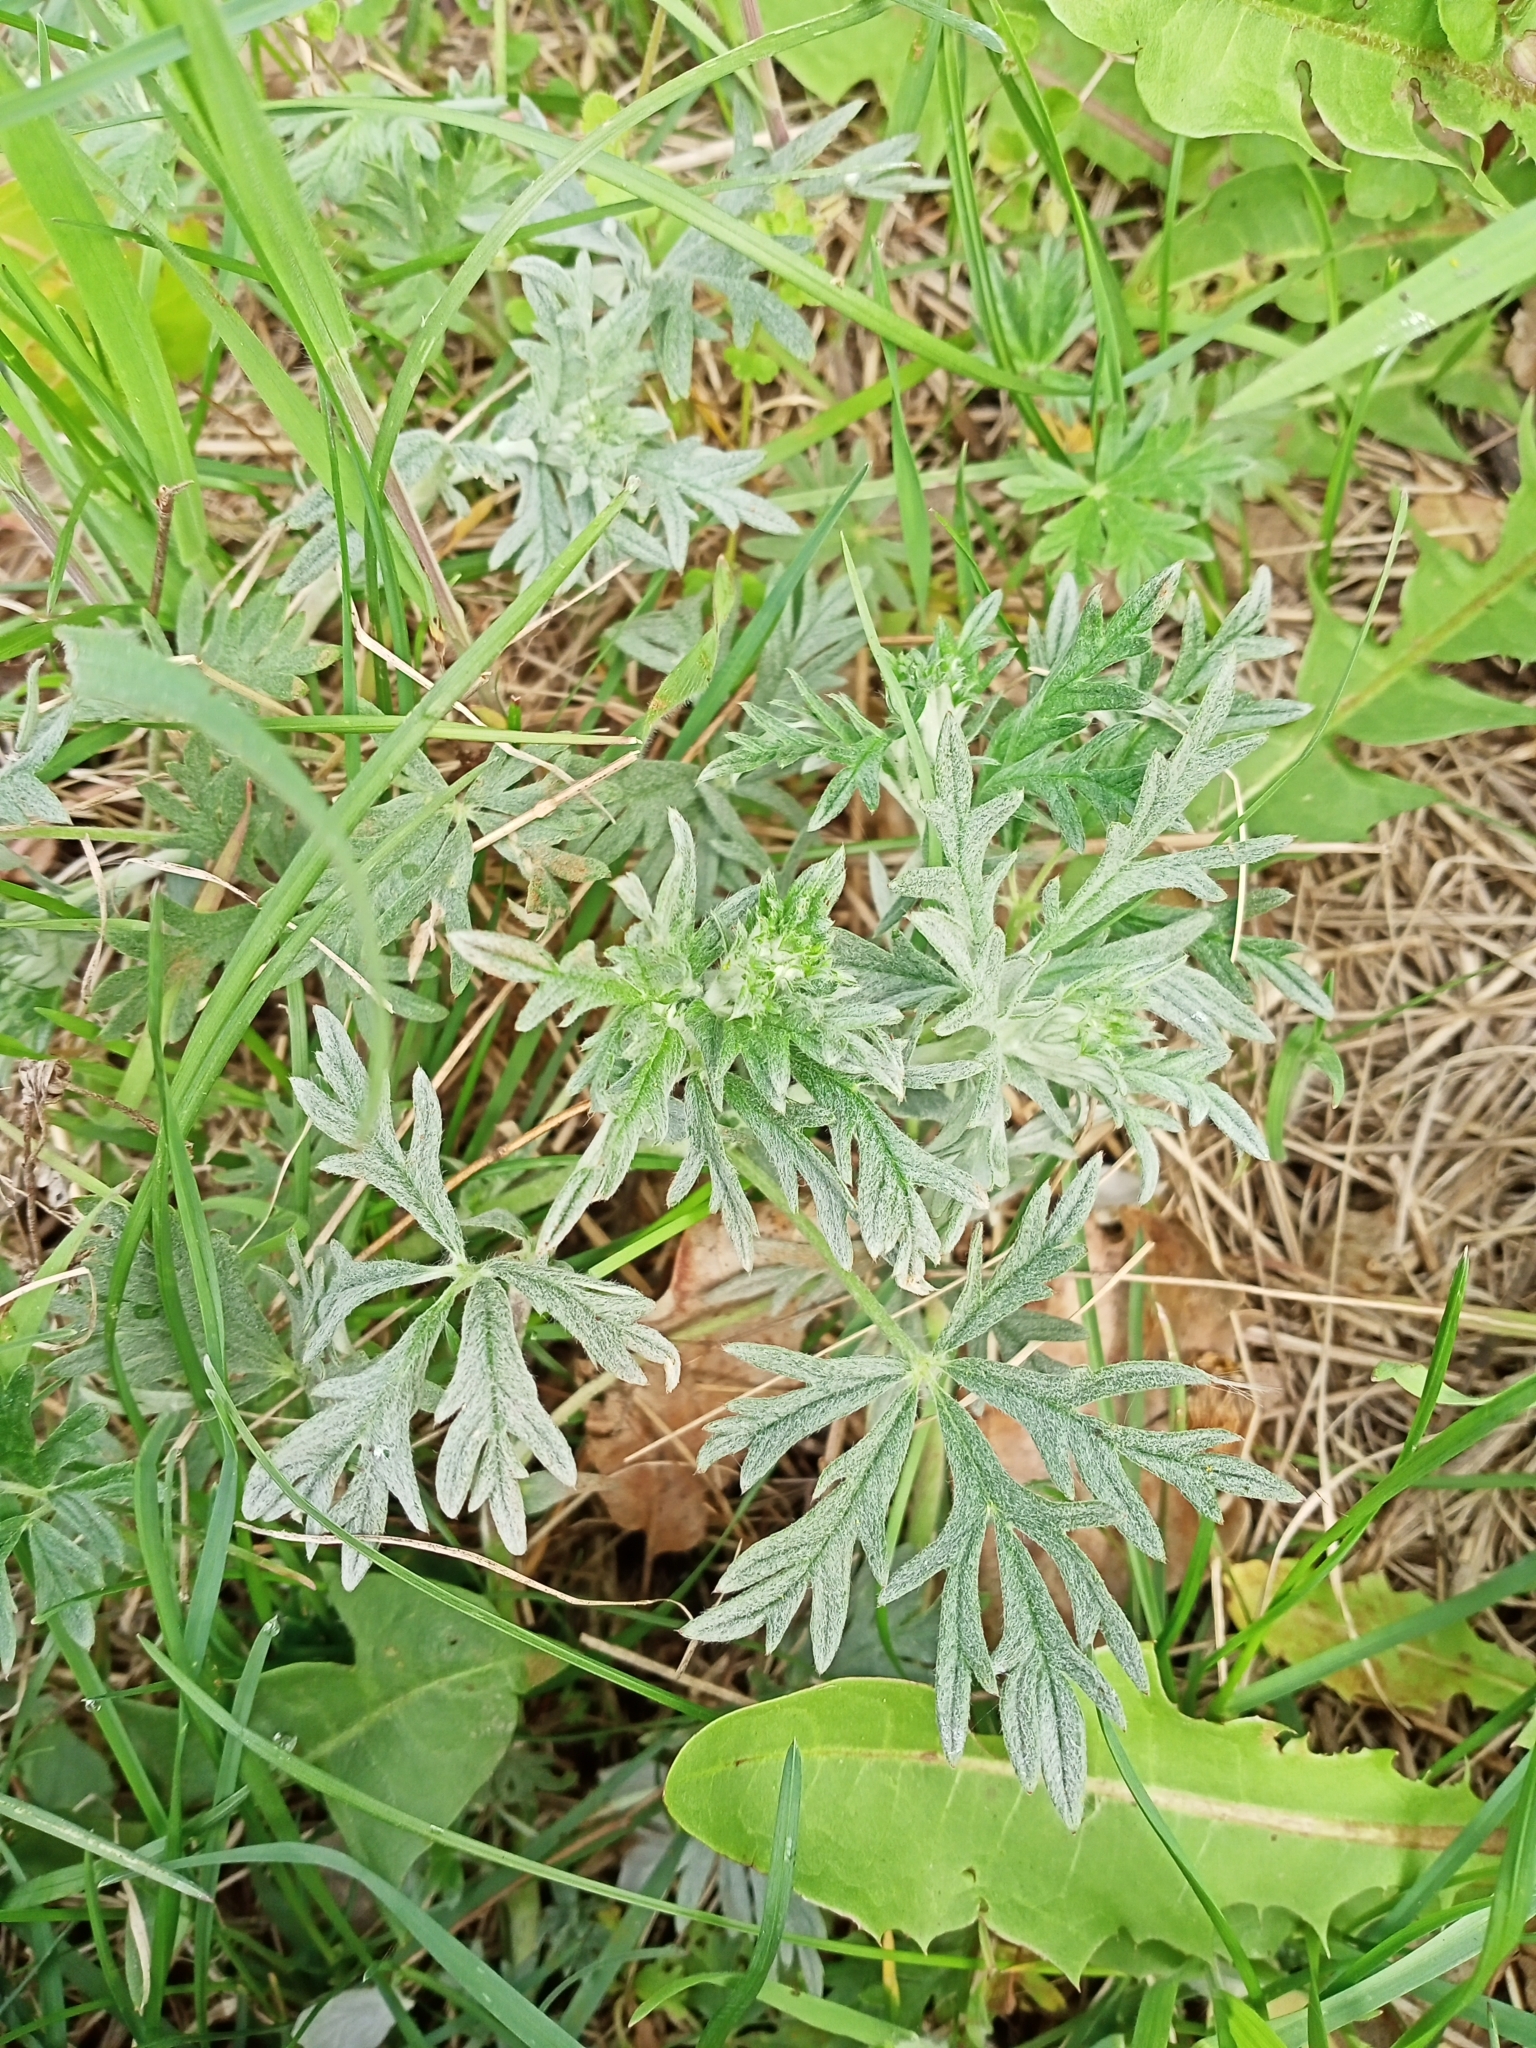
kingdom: Plantae
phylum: Tracheophyta
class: Magnoliopsida
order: Rosales
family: Rosaceae
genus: Potentilla
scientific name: Potentilla argentea
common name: Hoary cinquefoil
